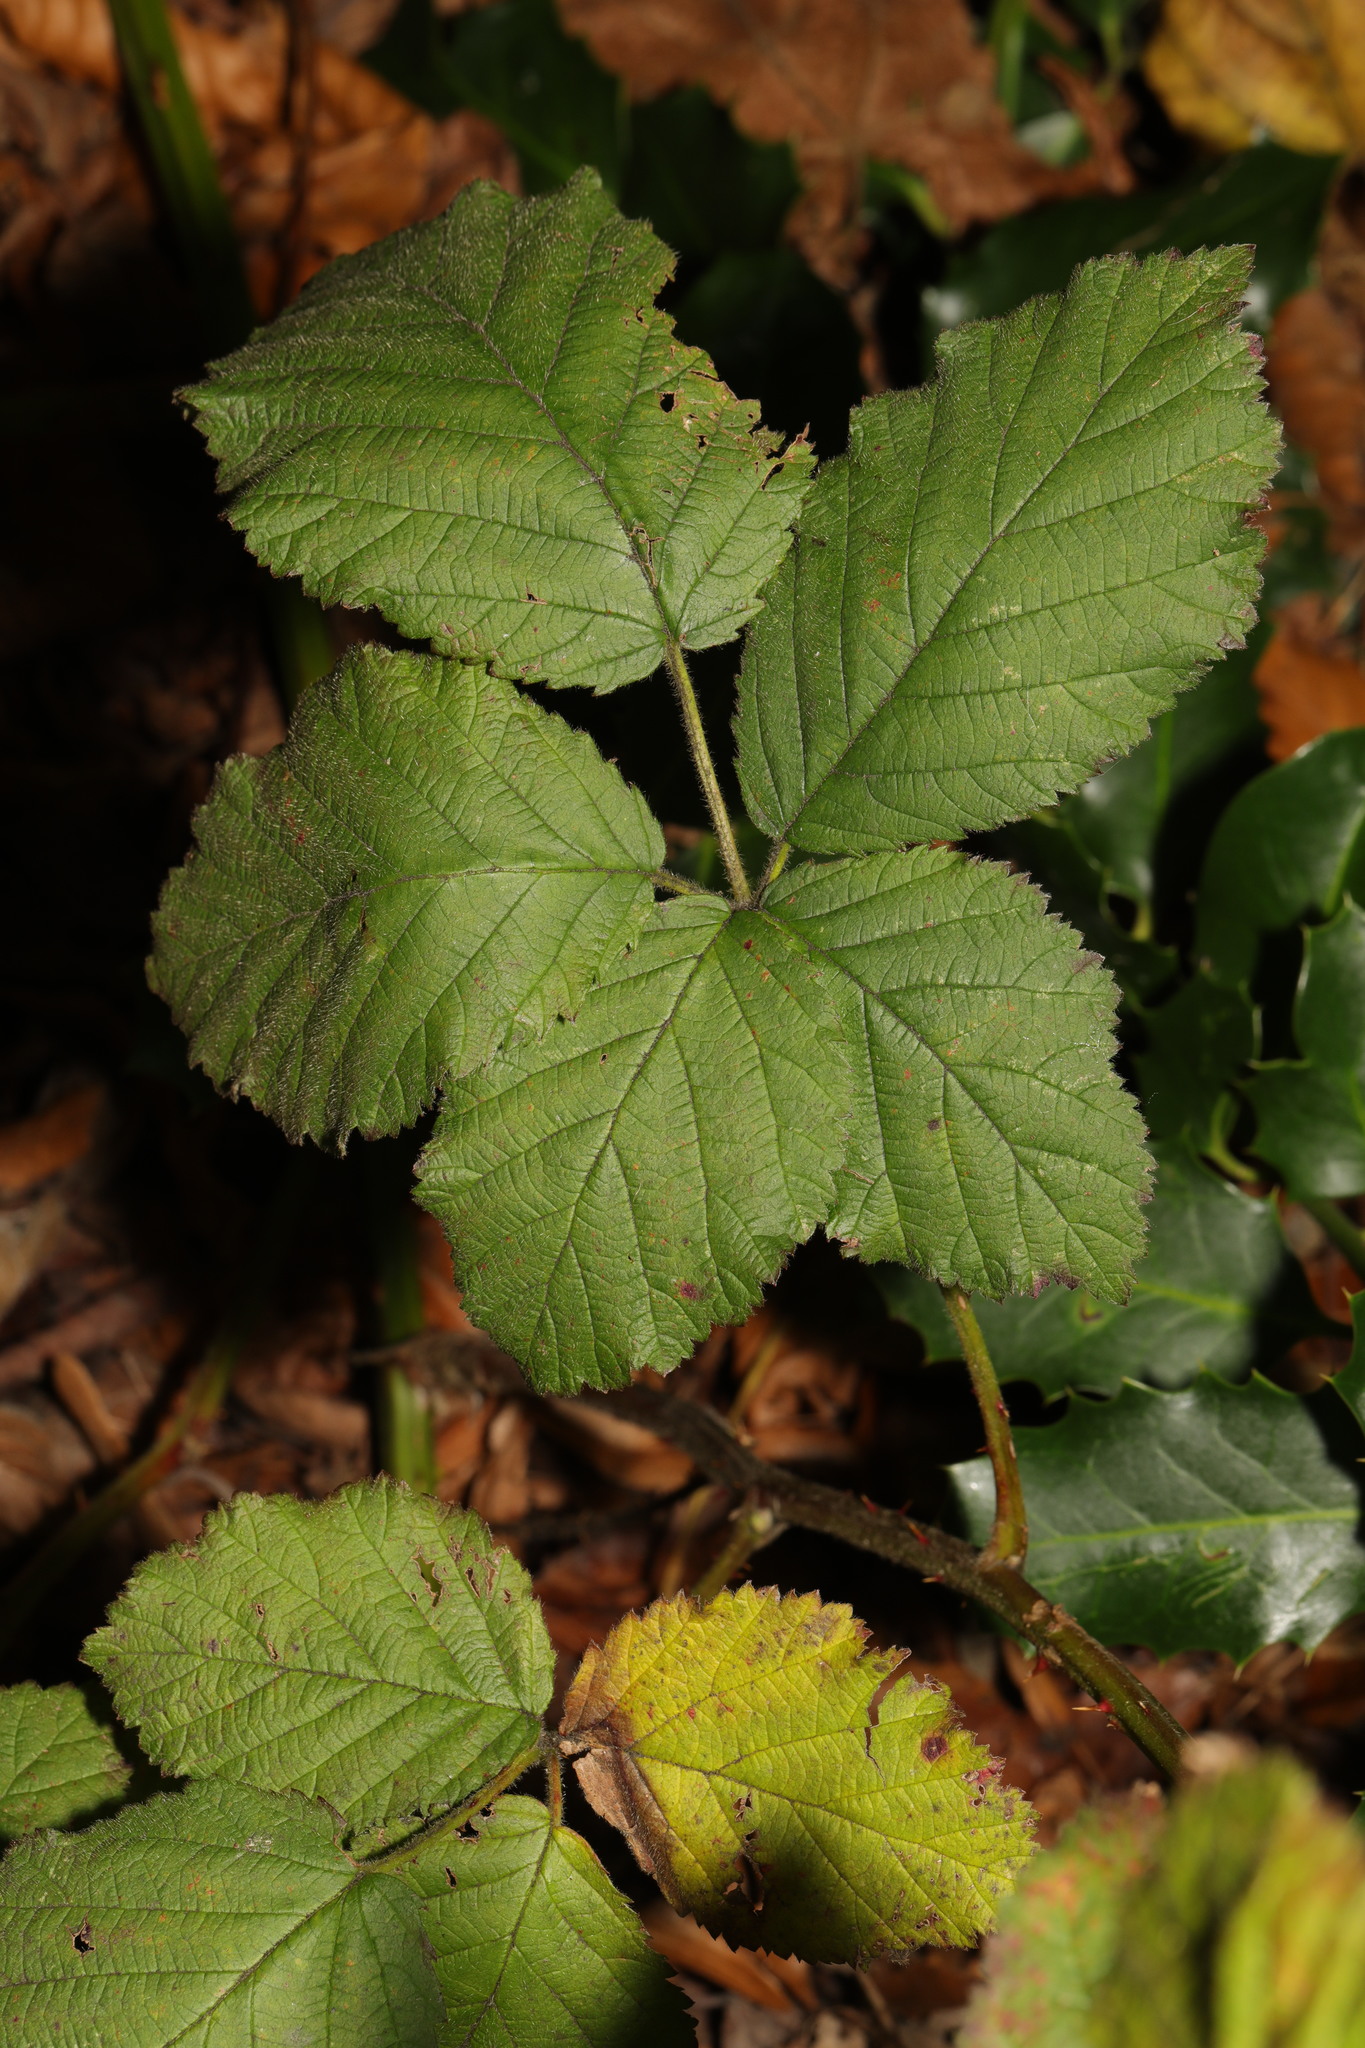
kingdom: Plantae
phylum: Tracheophyta
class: Magnoliopsida
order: Rosales
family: Rosaceae
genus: Rubus
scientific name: Rubus armeniacus
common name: Himalayan blackberry
